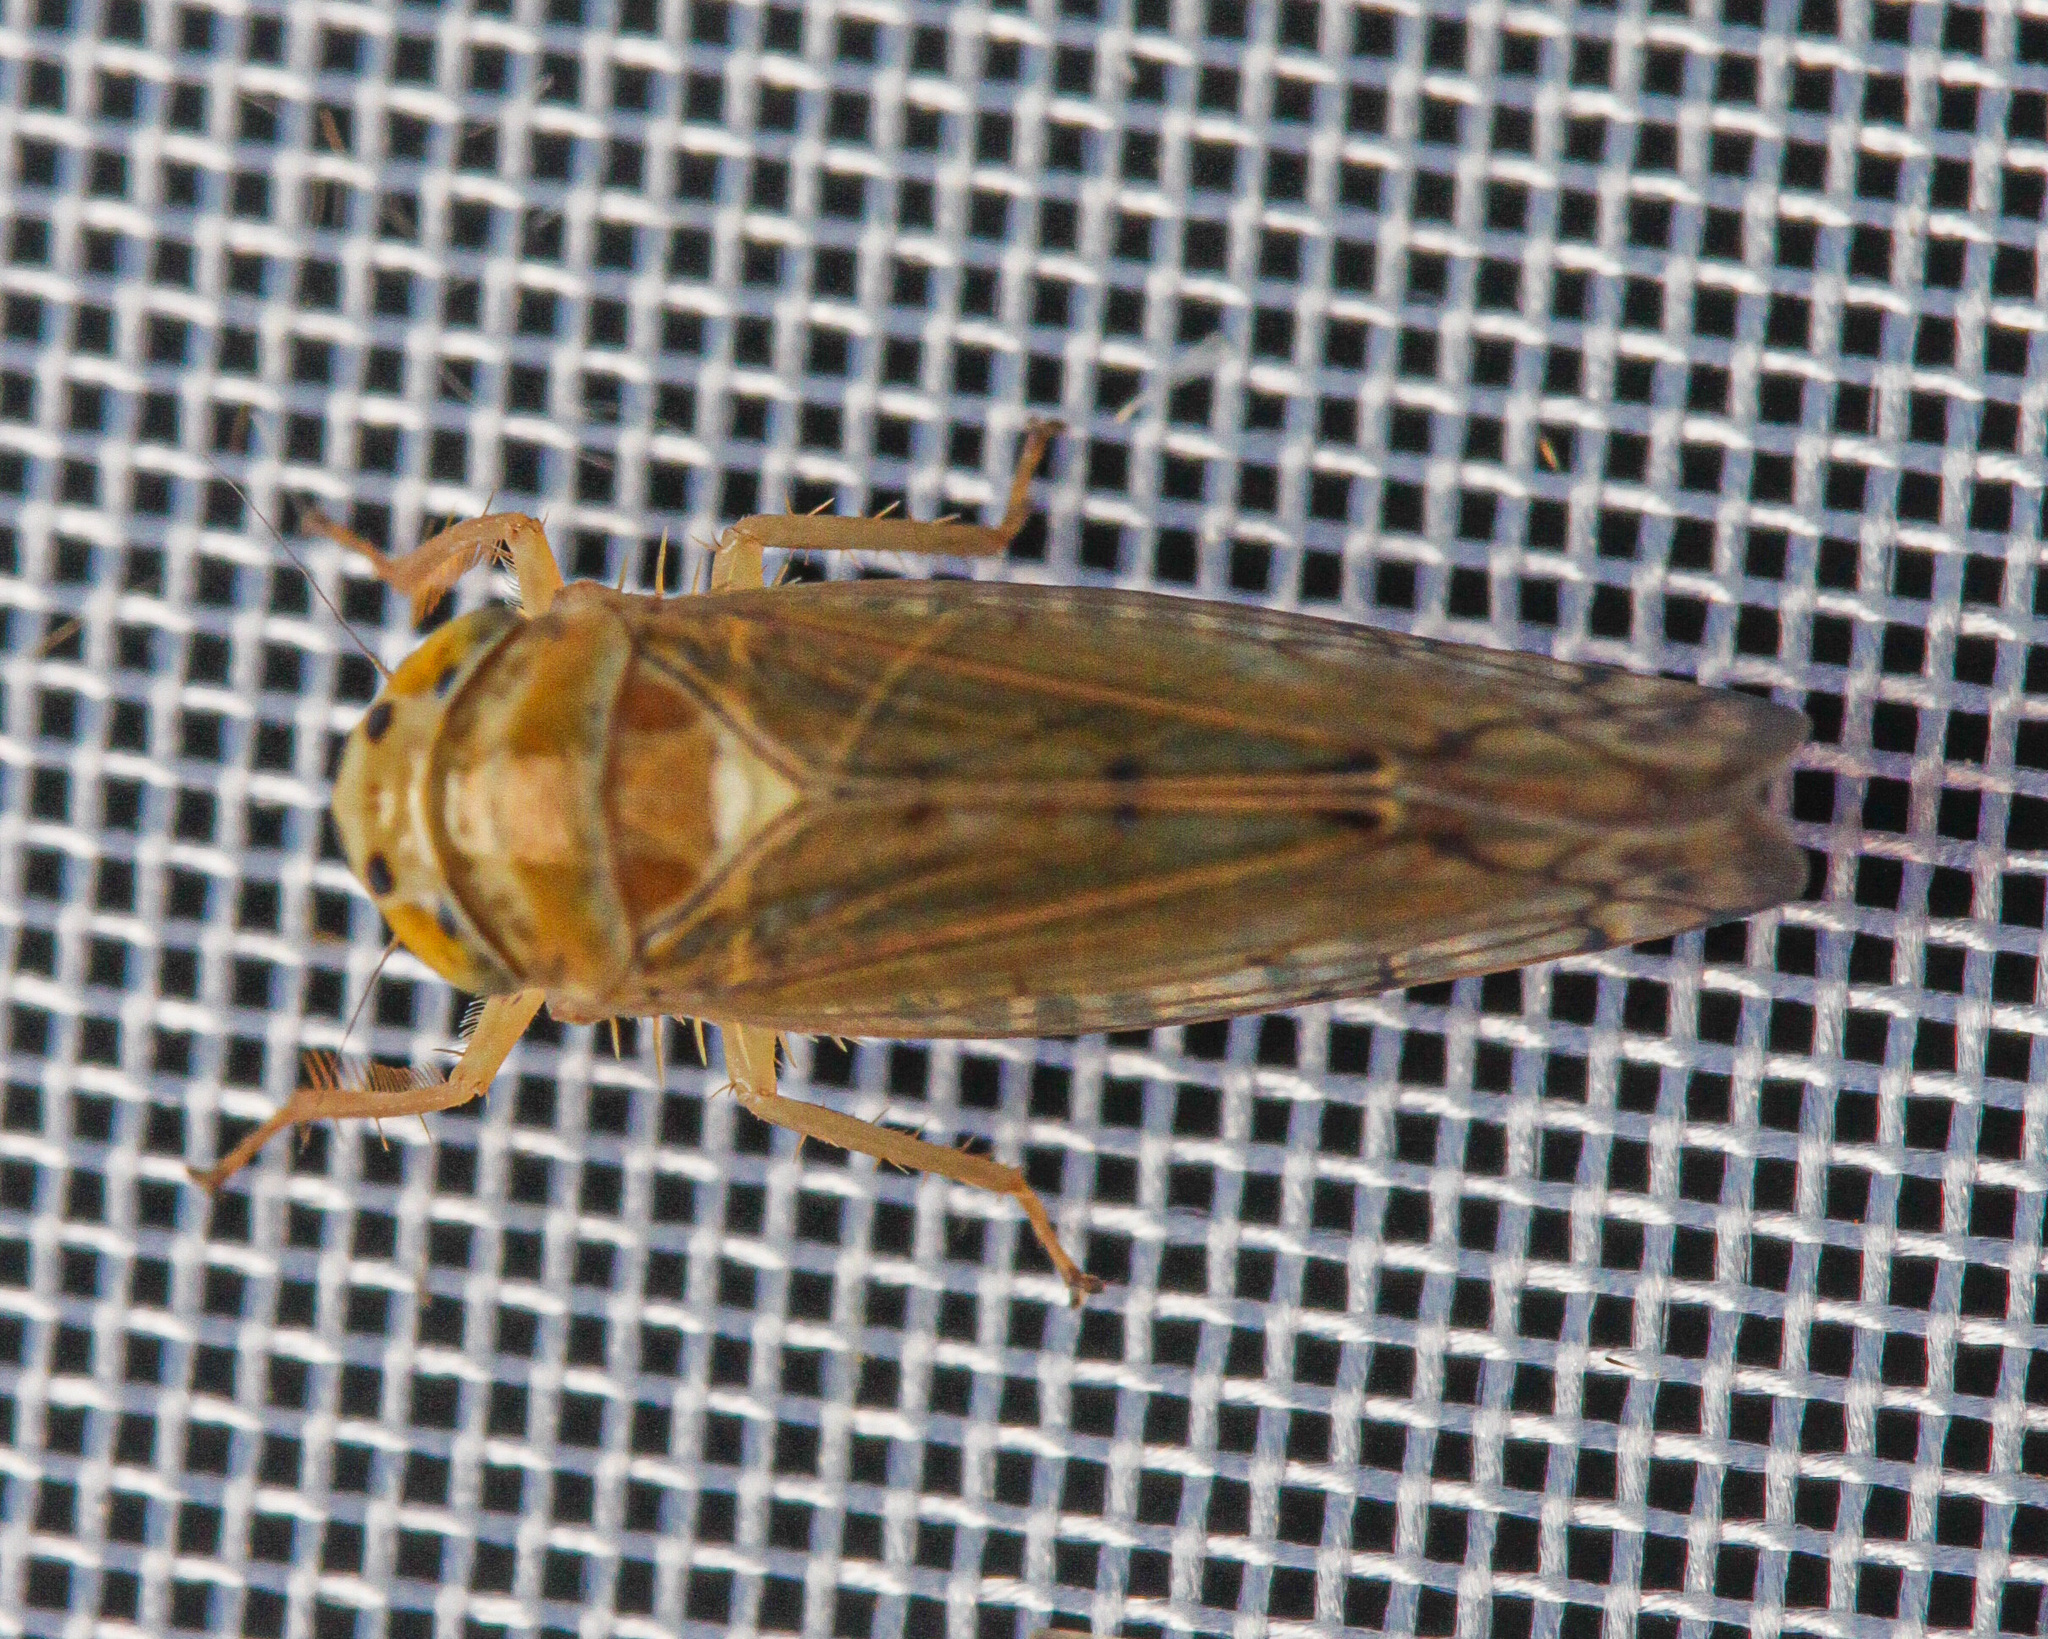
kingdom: Animalia
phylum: Arthropoda
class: Insecta
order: Hemiptera
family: Cicadellidae
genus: Anoplotettix
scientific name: Anoplotettix fuscovenosus
